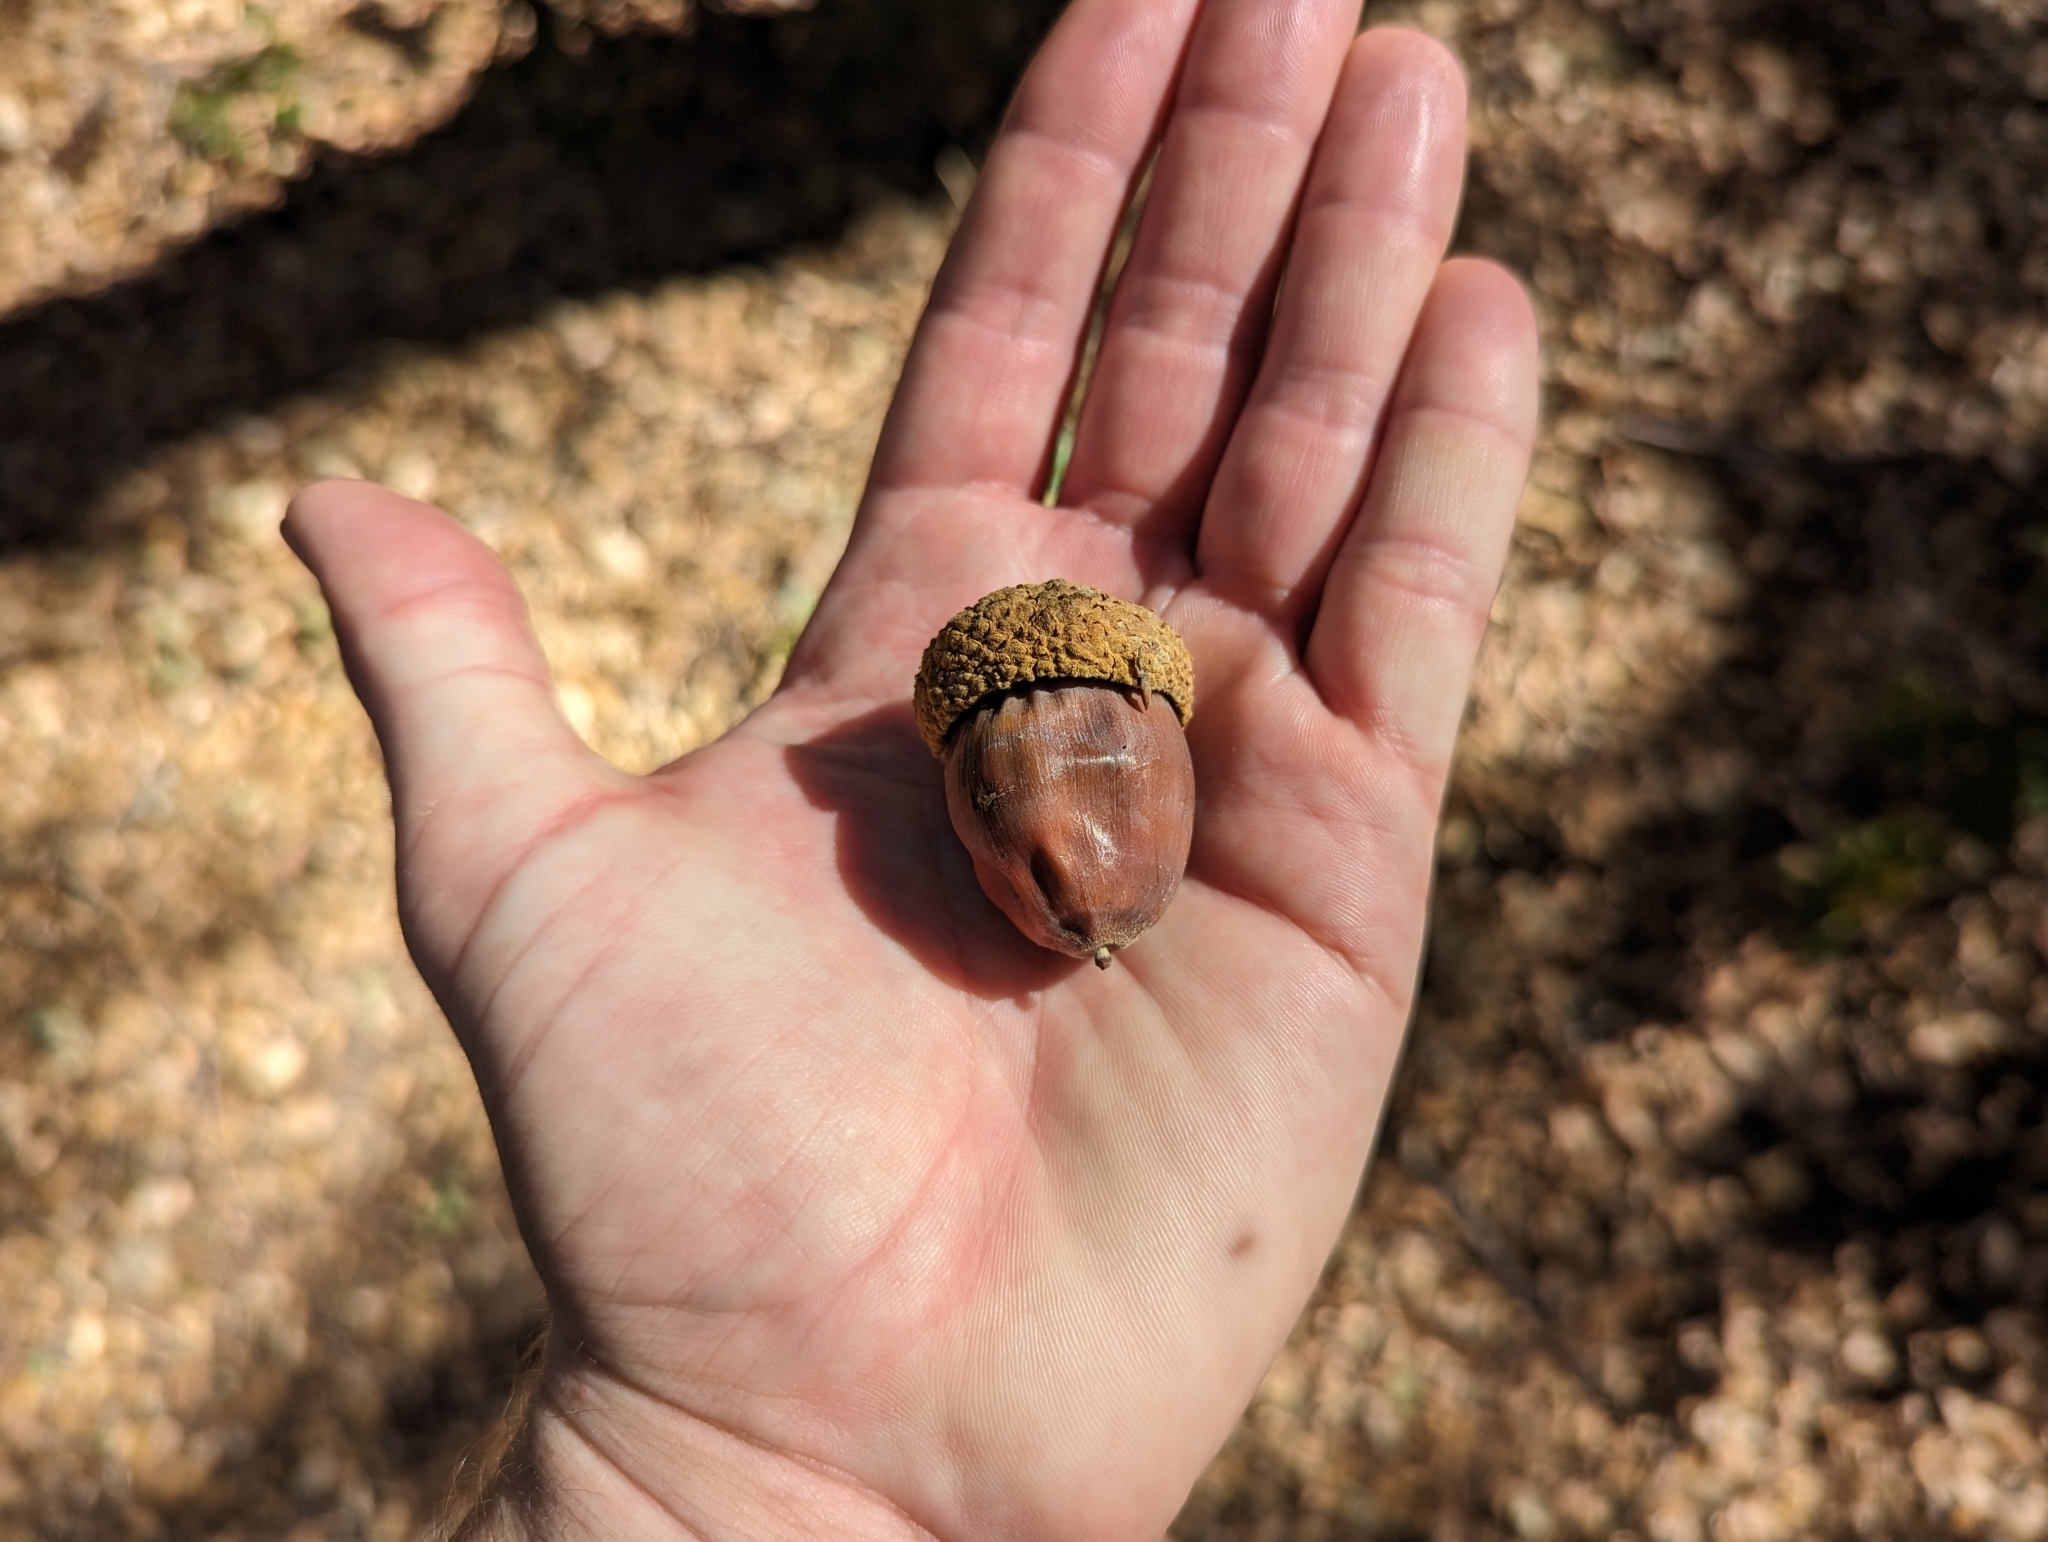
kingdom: Plantae
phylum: Tracheophyta
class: Magnoliopsida
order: Fagales
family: Fagaceae
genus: Quercus
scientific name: Quercus chrysolepis
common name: Canyon live oak
